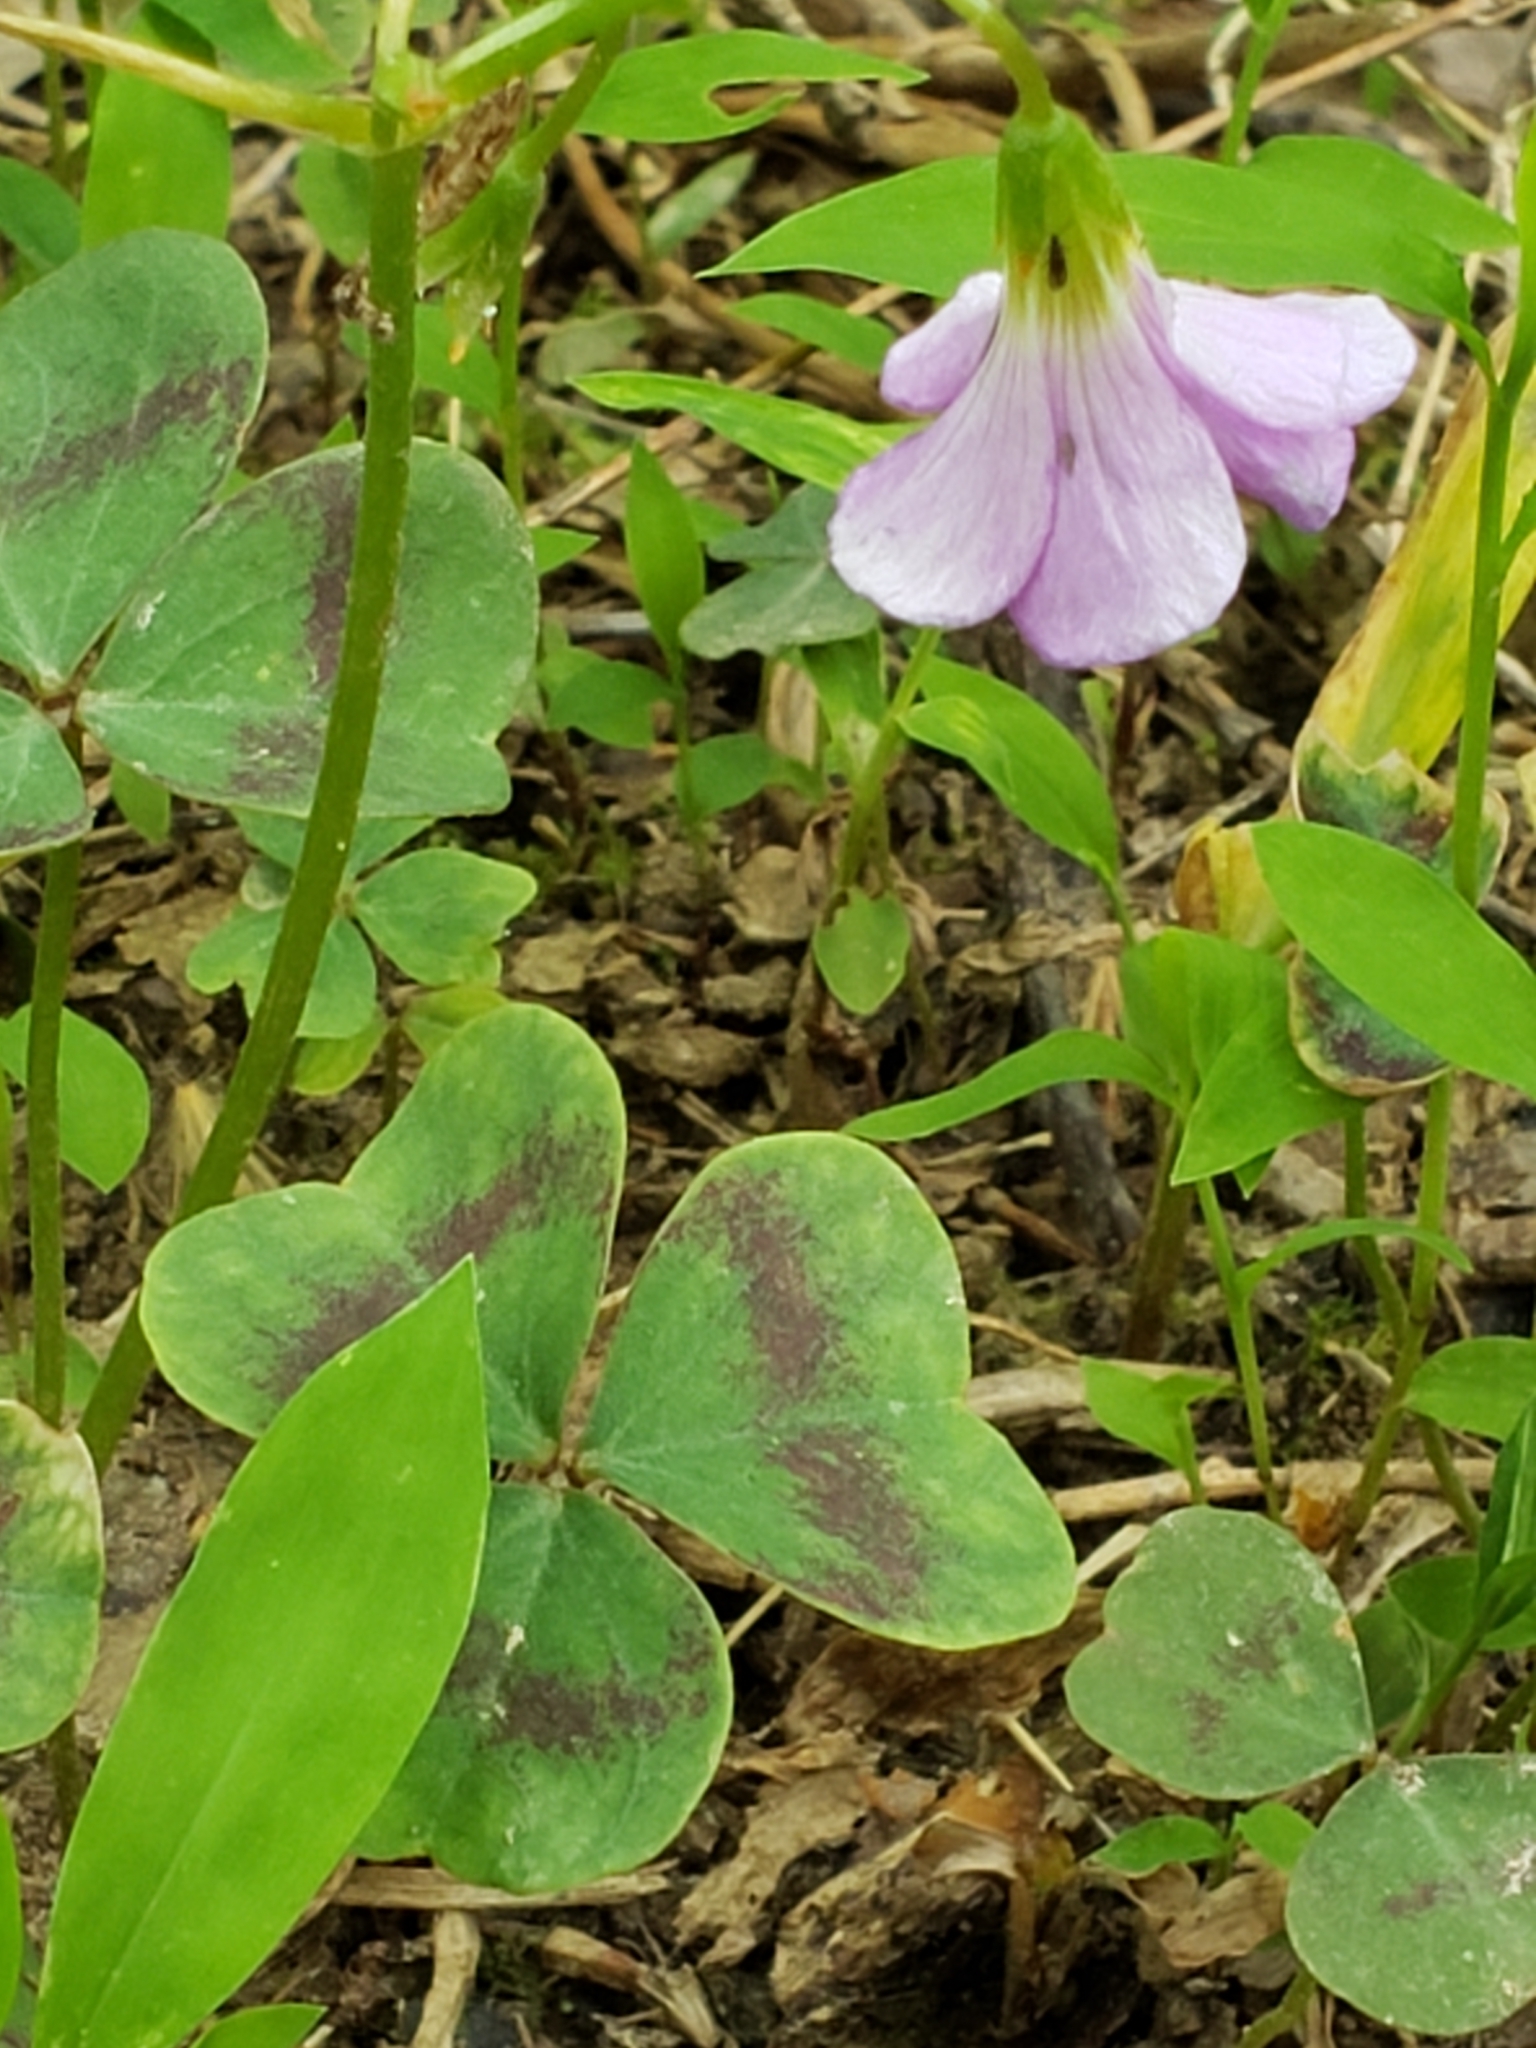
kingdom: Plantae
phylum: Tracheophyta
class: Magnoliopsida
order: Oxalidales
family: Oxalidaceae
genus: Oxalis
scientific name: Oxalis violacea
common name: Violet wood-sorrel
